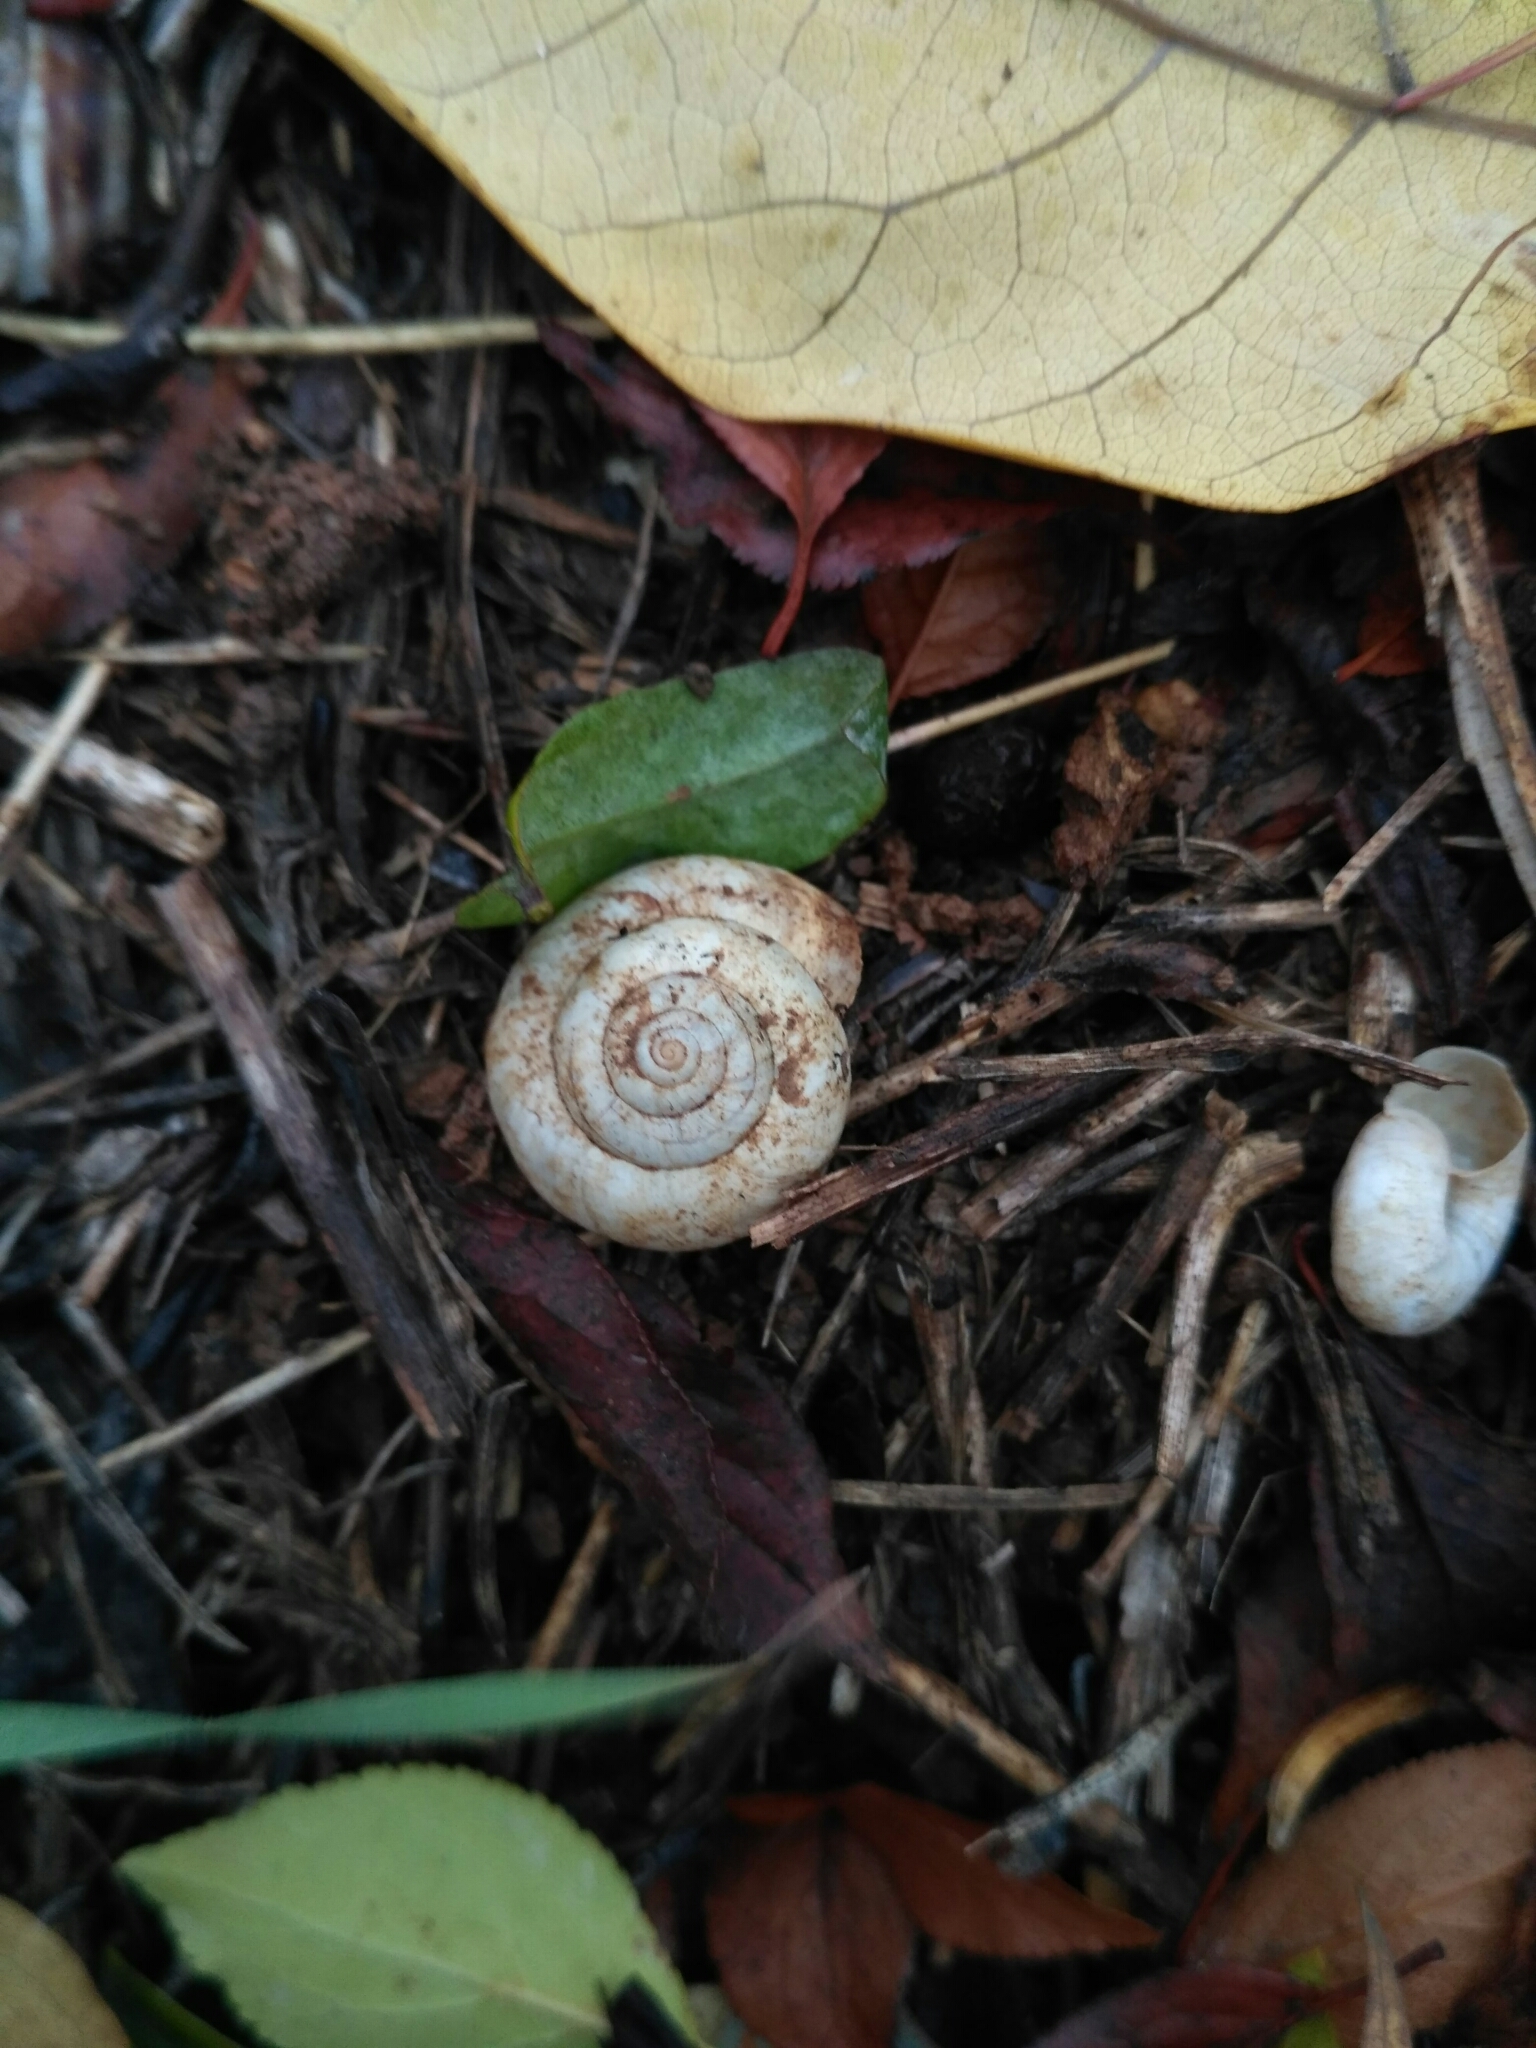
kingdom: Animalia
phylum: Mollusca
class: Gastropoda
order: Stylommatophora
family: Geomitridae
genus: Xeropicta
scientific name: Xeropicta derbentina
